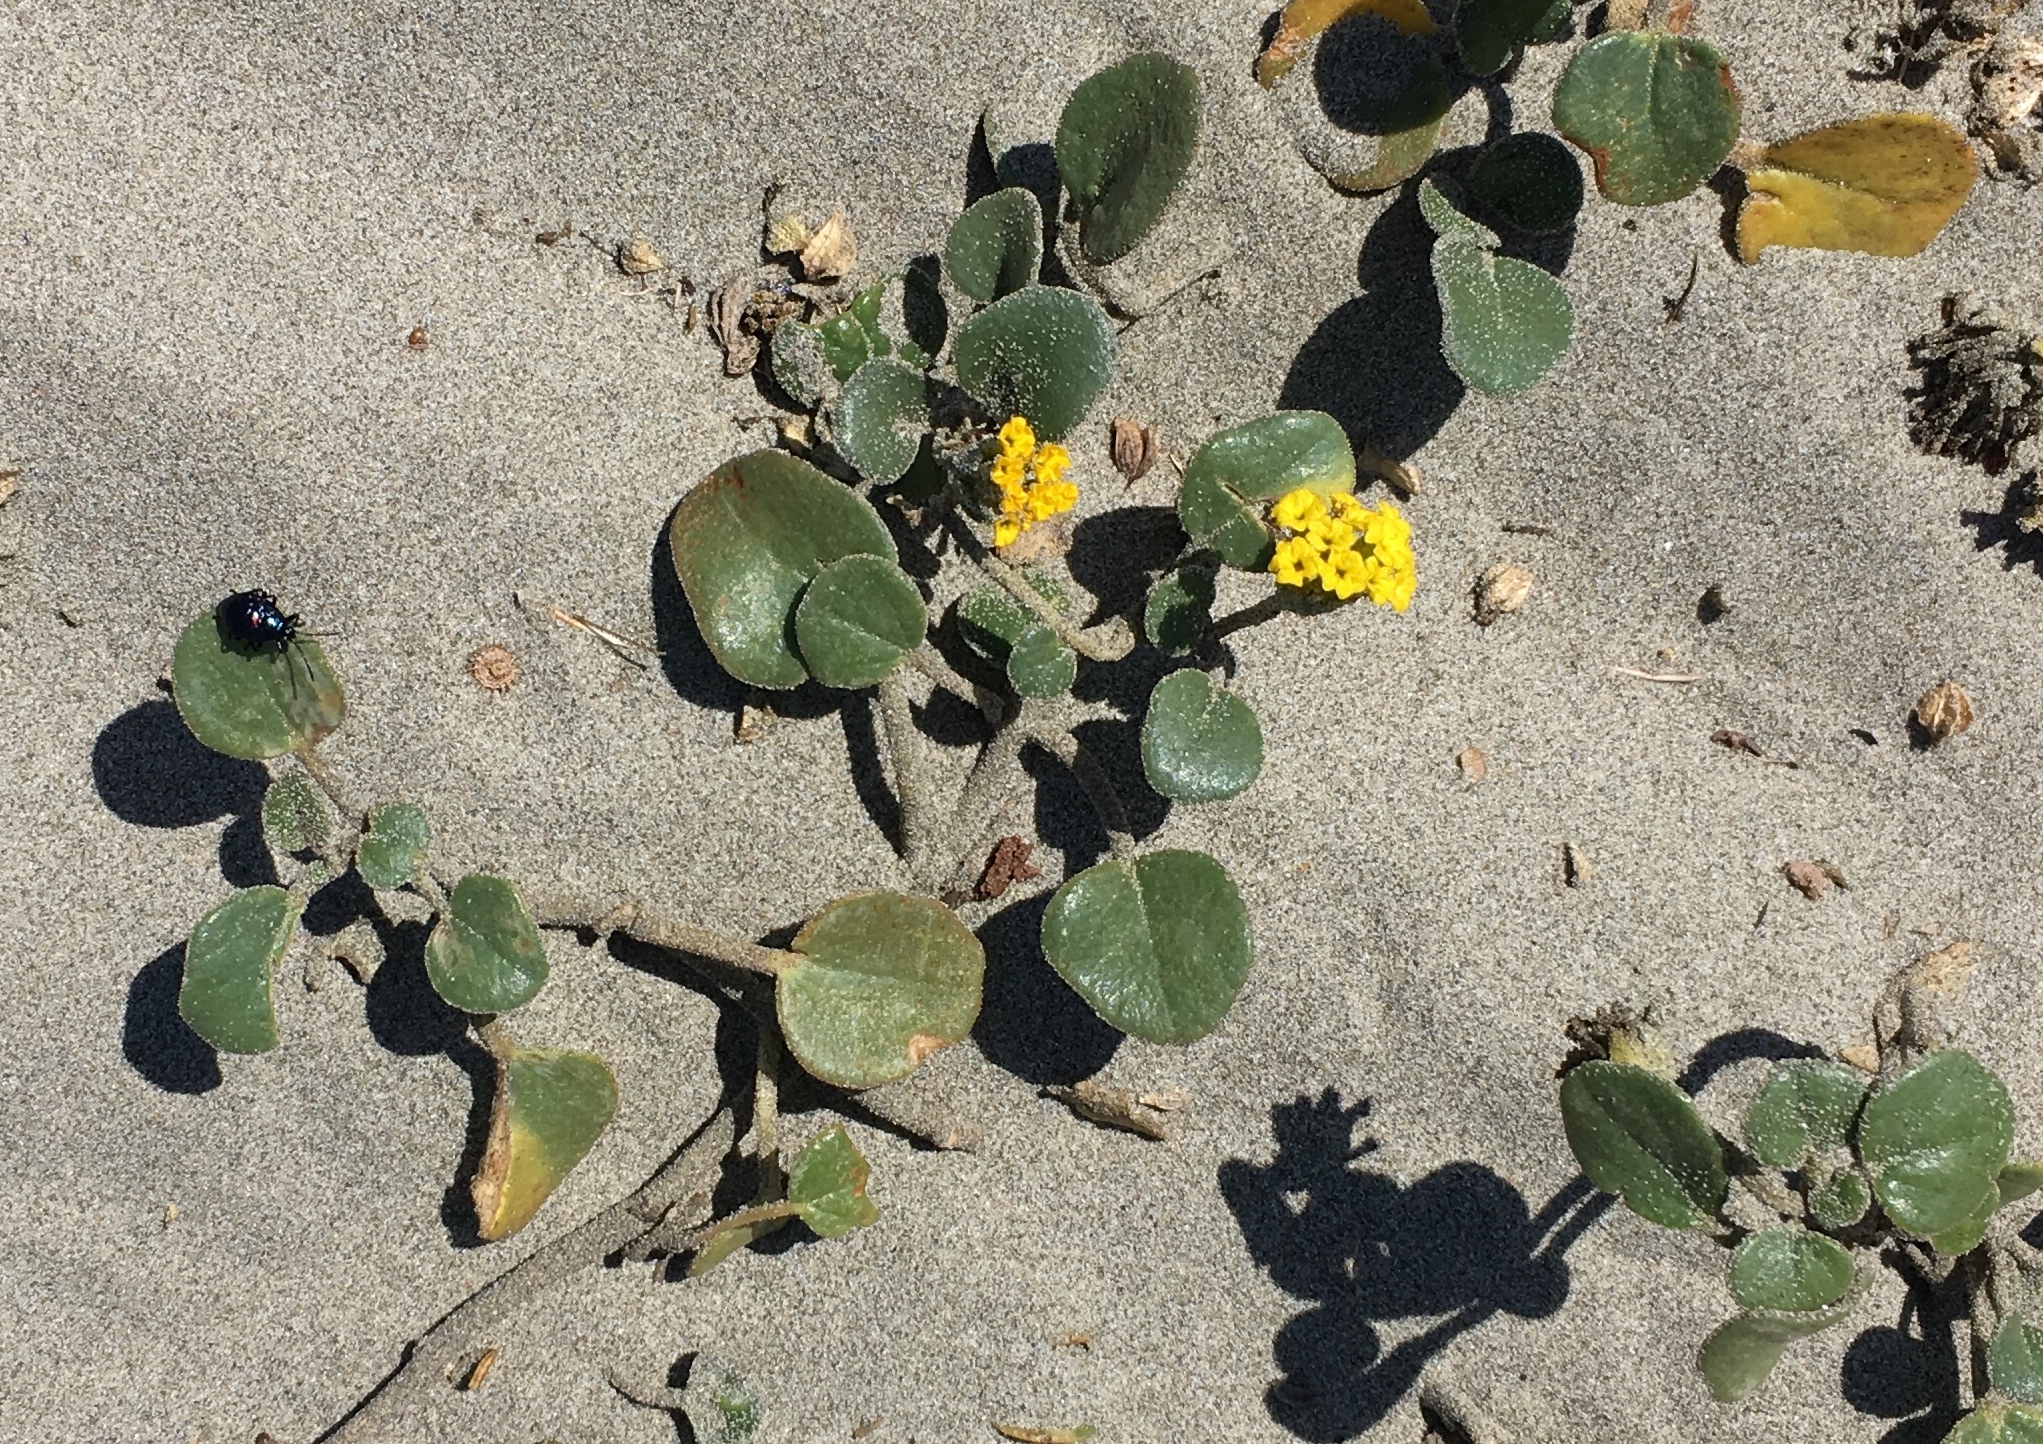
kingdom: Plantae
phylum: Tracheophyta
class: Magnoliopsida
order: Caryophyllales
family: Nyctaginaceae
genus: Abronia
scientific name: Abronia latifolia
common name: Yellow sand-verbena
